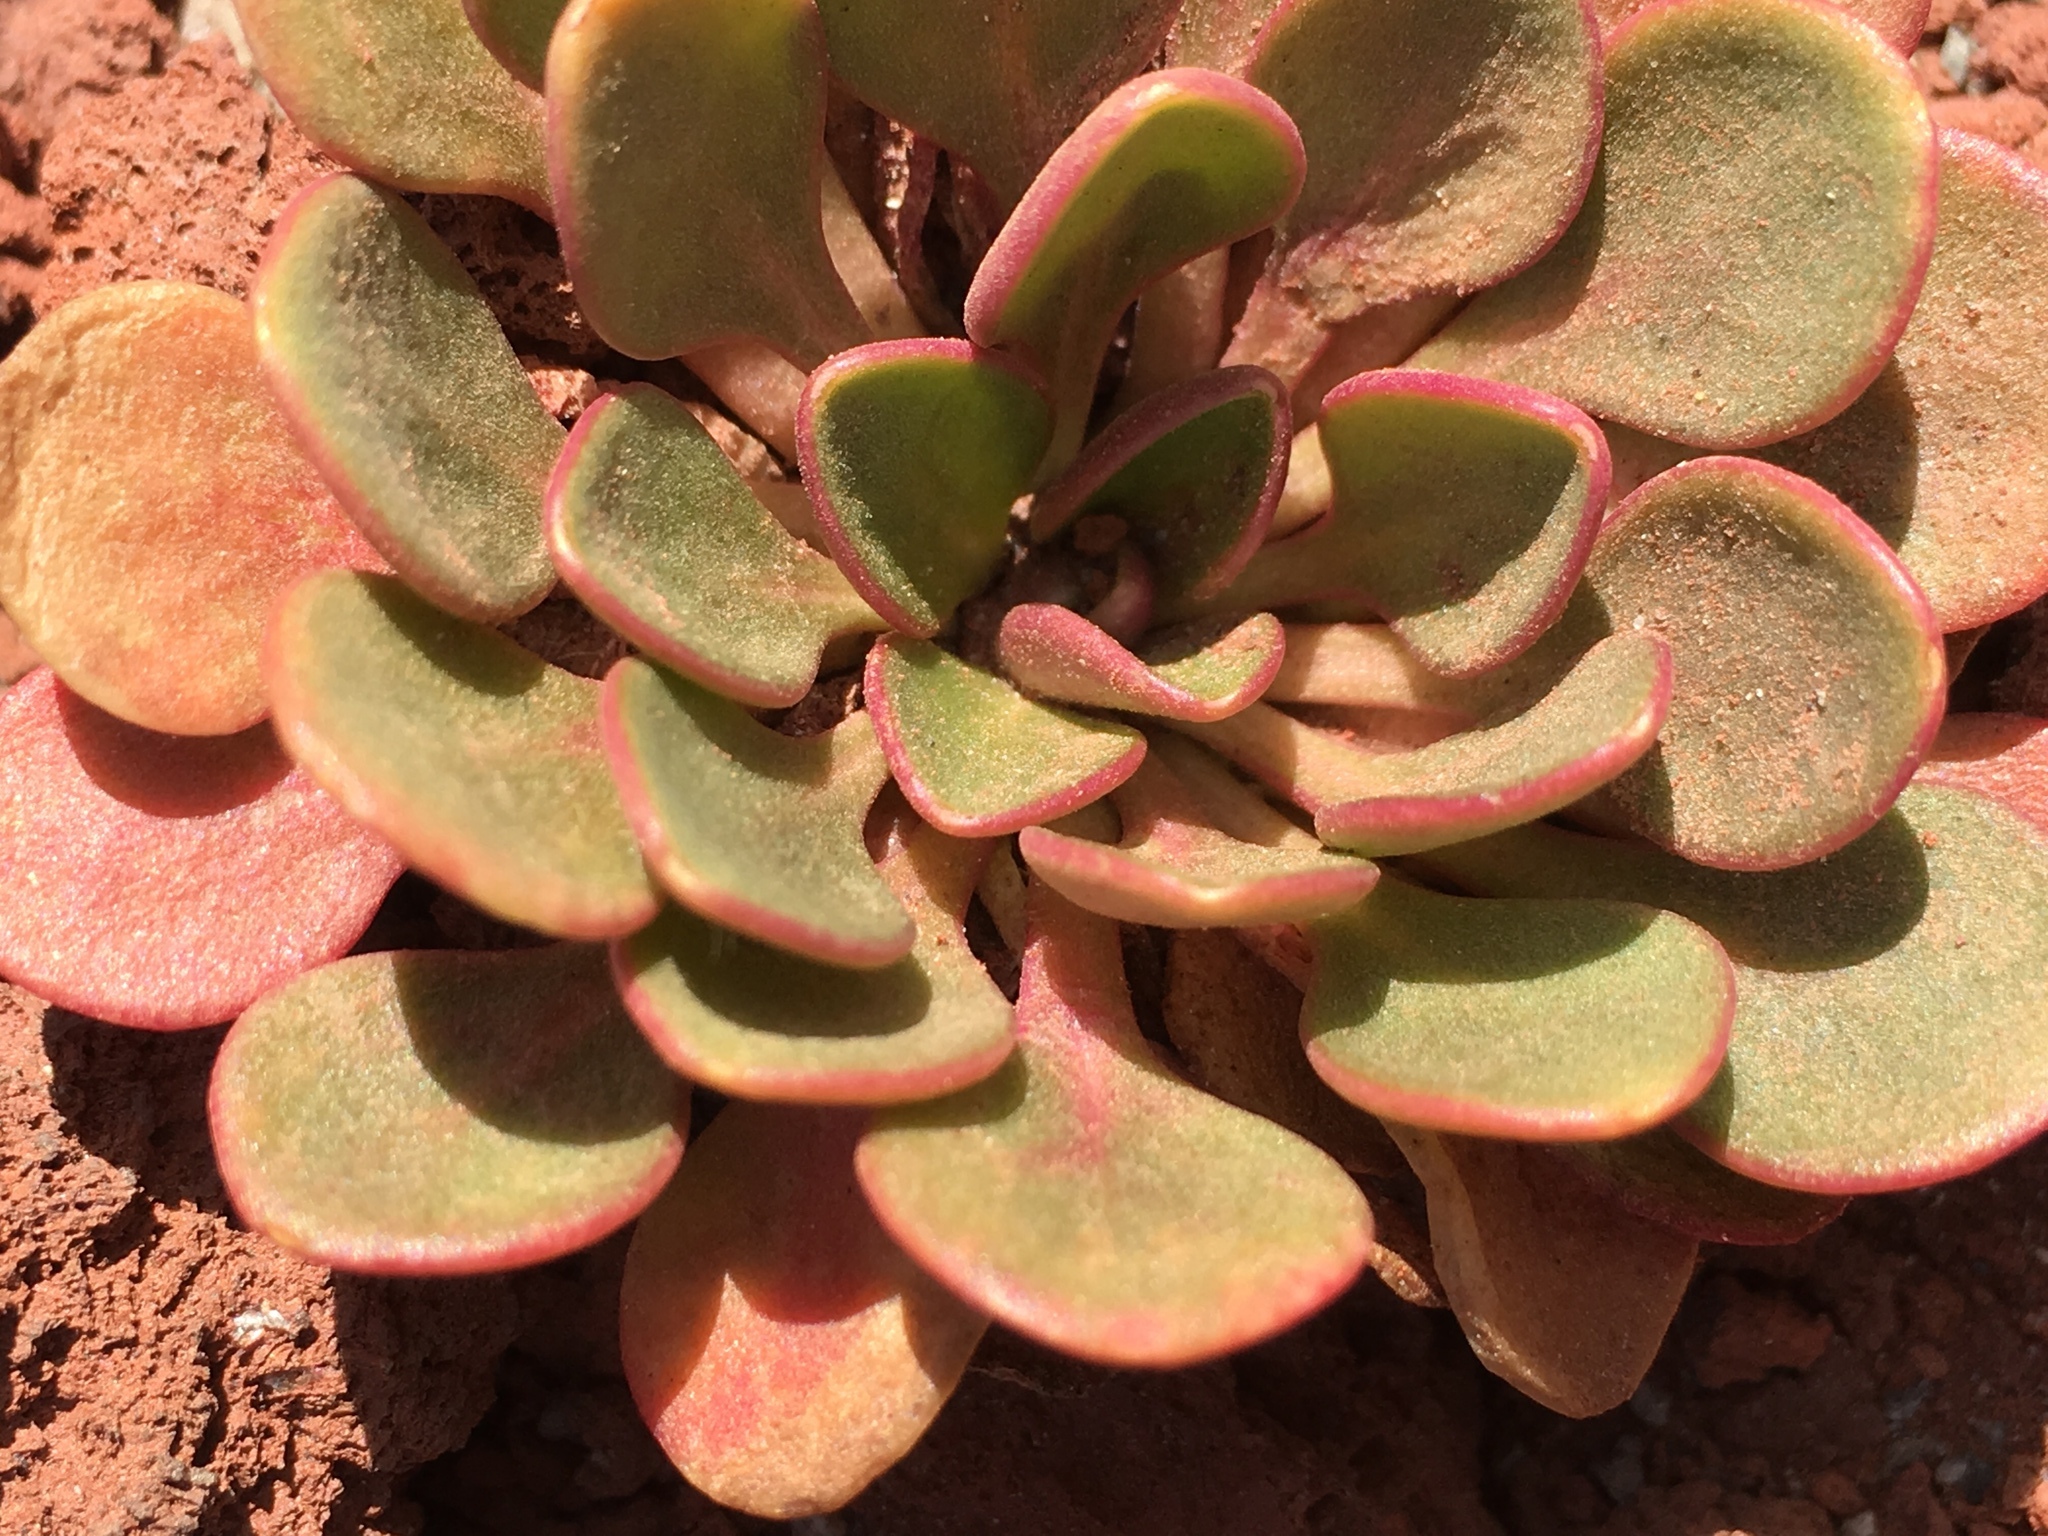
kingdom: Plantae
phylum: Tracheophyta
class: Magnoliopsida
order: Caryophyllales
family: Montiaceae
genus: Claytonia
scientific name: Claytonia megarhiza
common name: Alpine spring beauty
